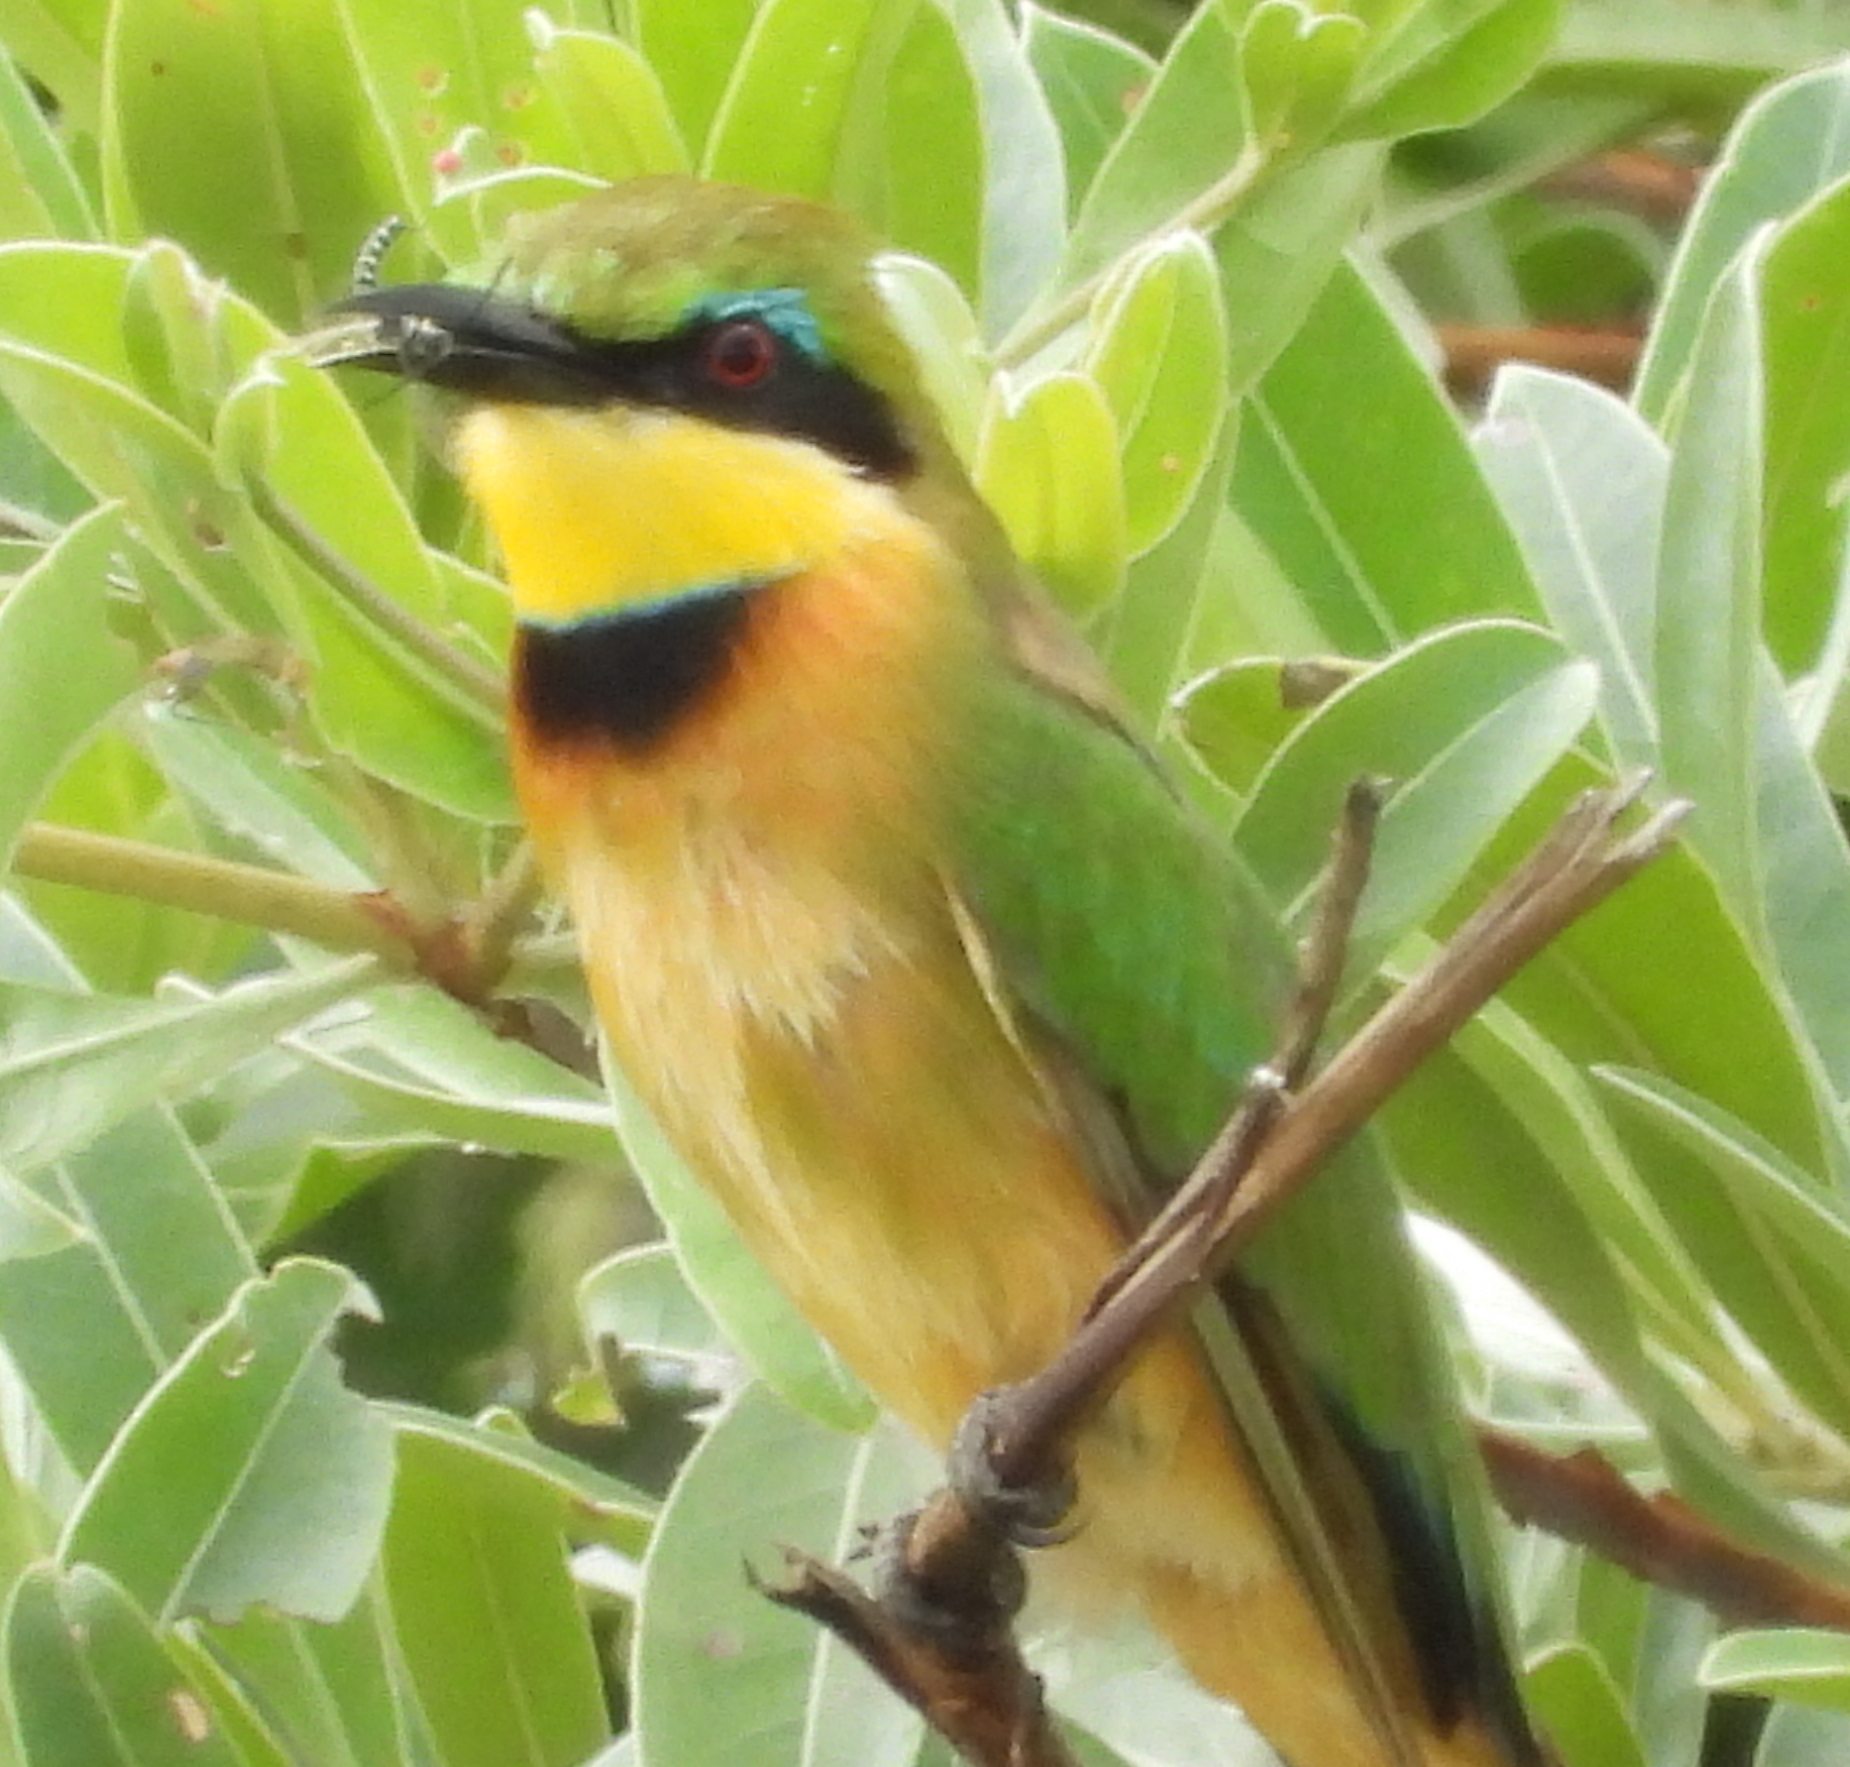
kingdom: Animalia
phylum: Chordata
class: Aves
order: Coraciiformes
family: Meropidae
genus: Merops
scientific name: Merops pusillus
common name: Little bee-eater
